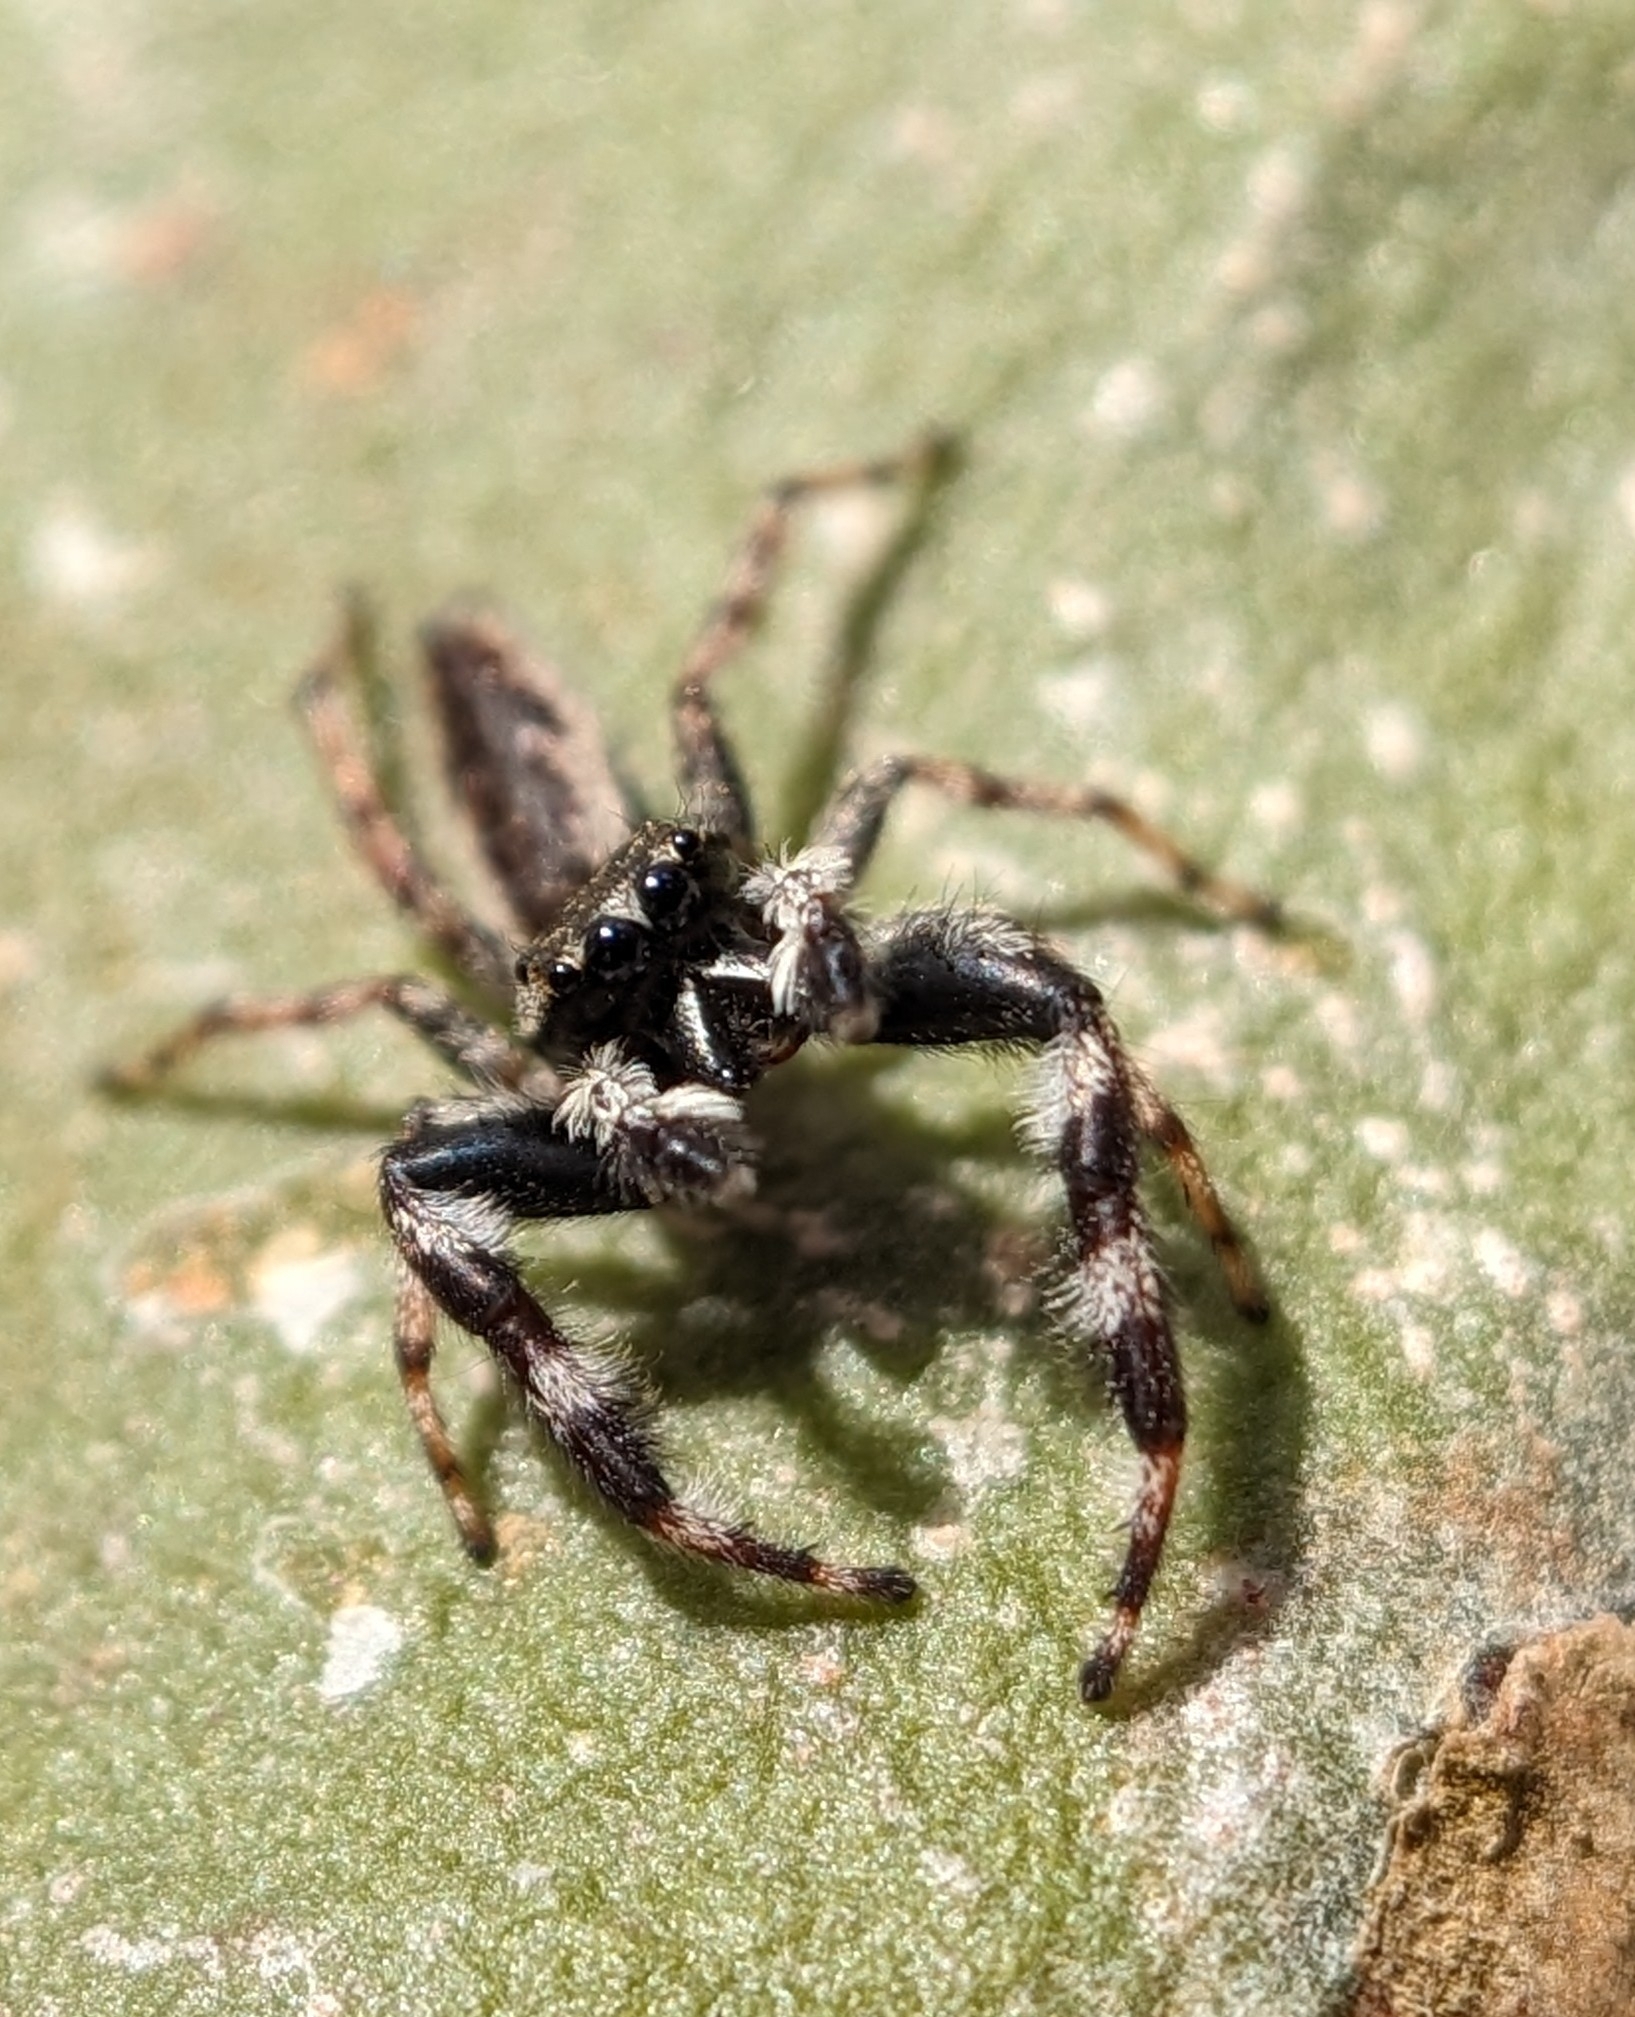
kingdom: Animalia
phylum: Arthropoda
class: Arachnida
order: Araneae
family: Salticidae
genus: Kelawakaju
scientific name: Kelawakaju sahyadri
